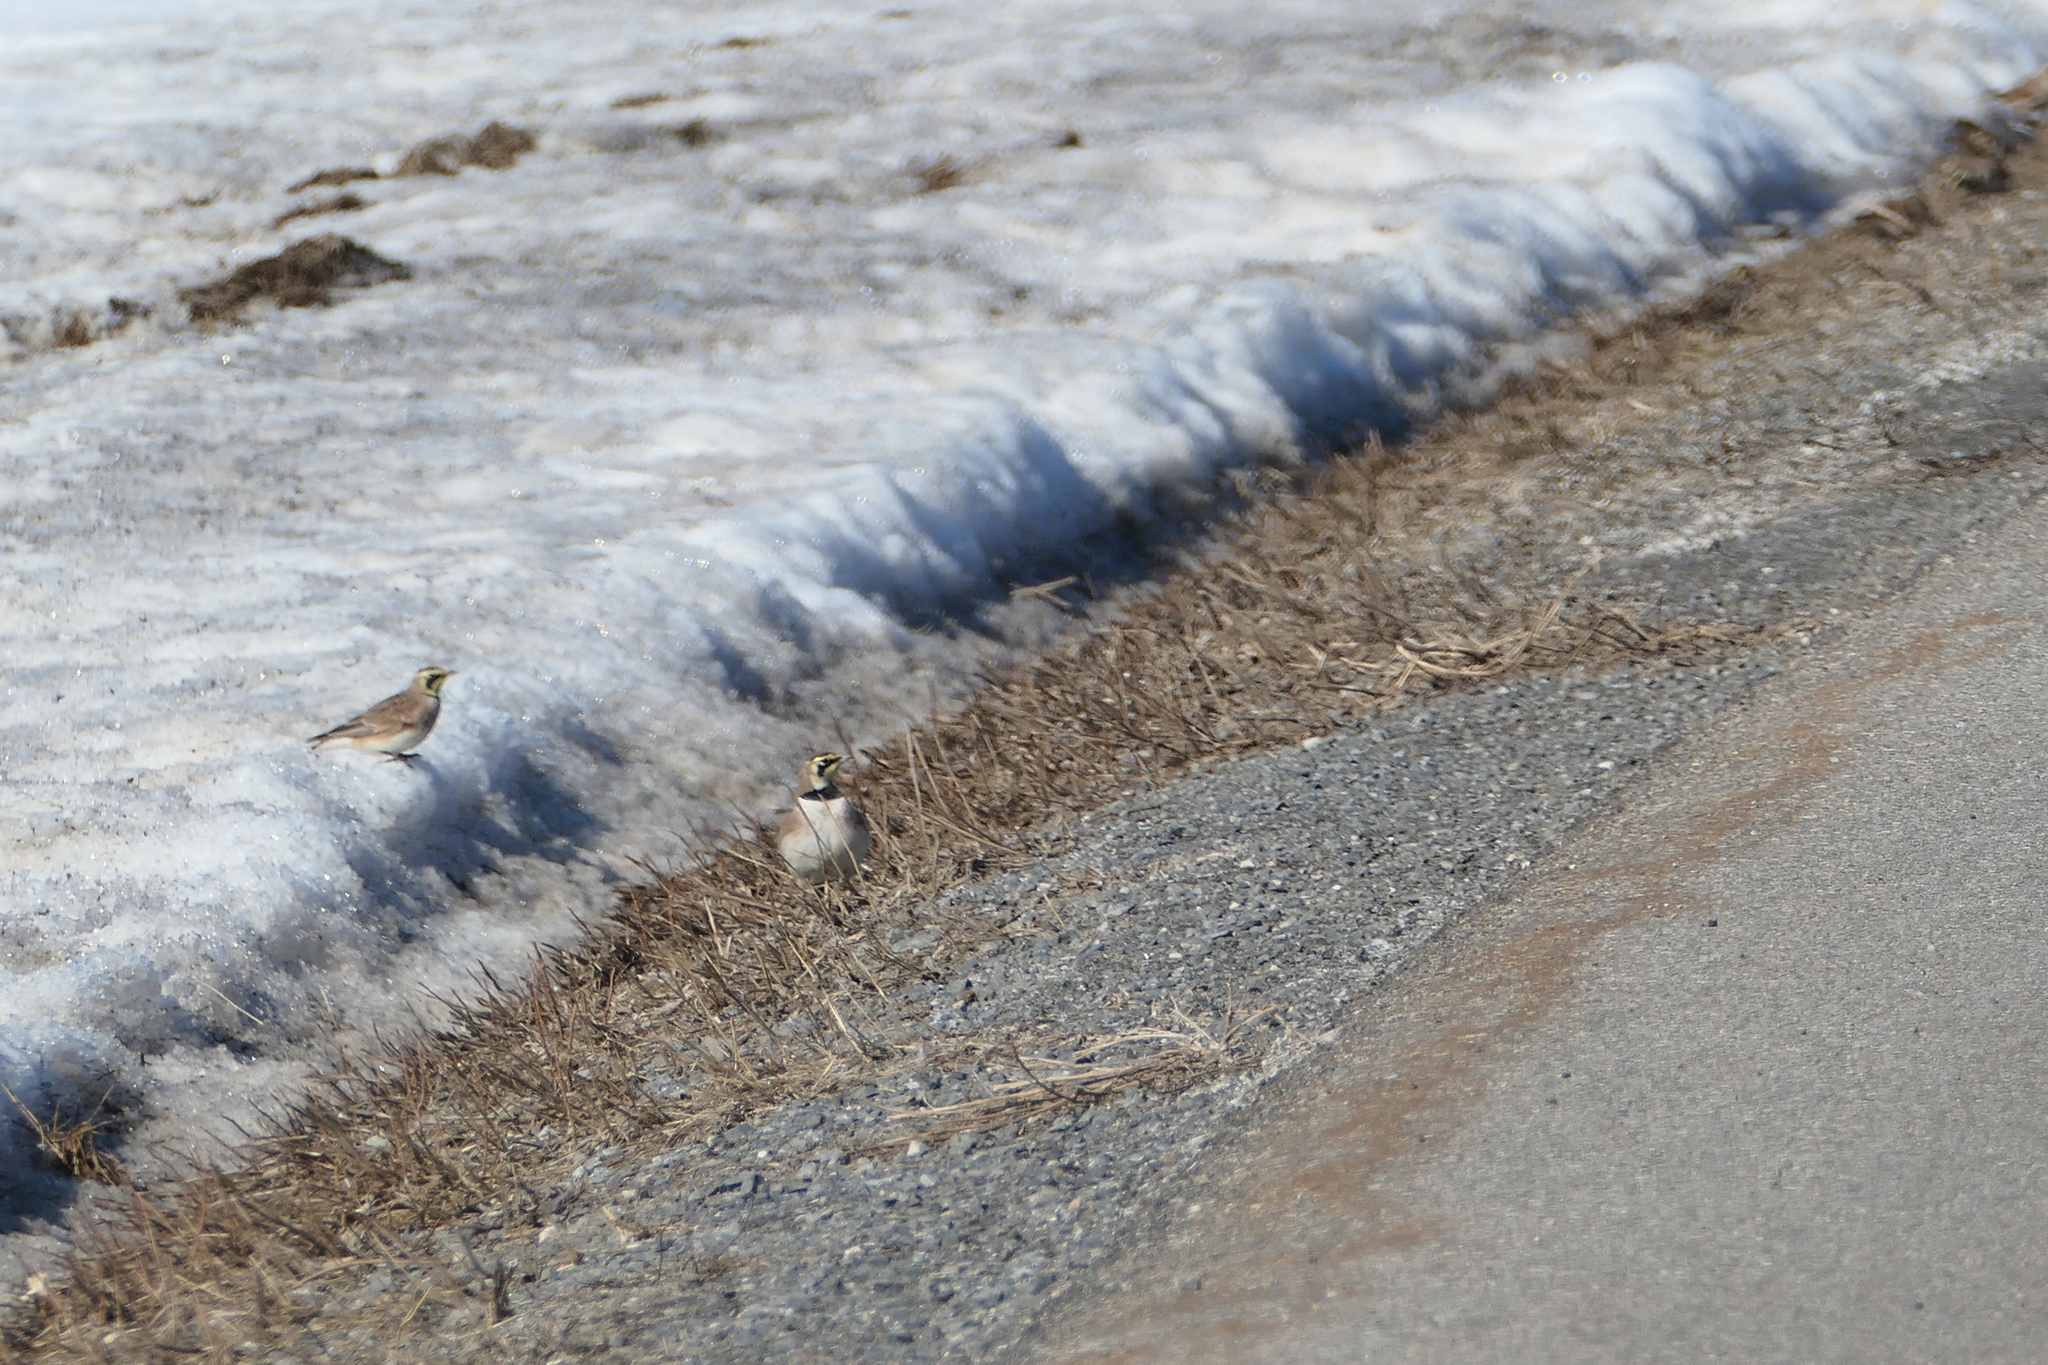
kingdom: Animalia
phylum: Chordata
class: Aves
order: Passeriformes
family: Alaudidae
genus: Eremophila
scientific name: Eremophila alpestris
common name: Horned lark
